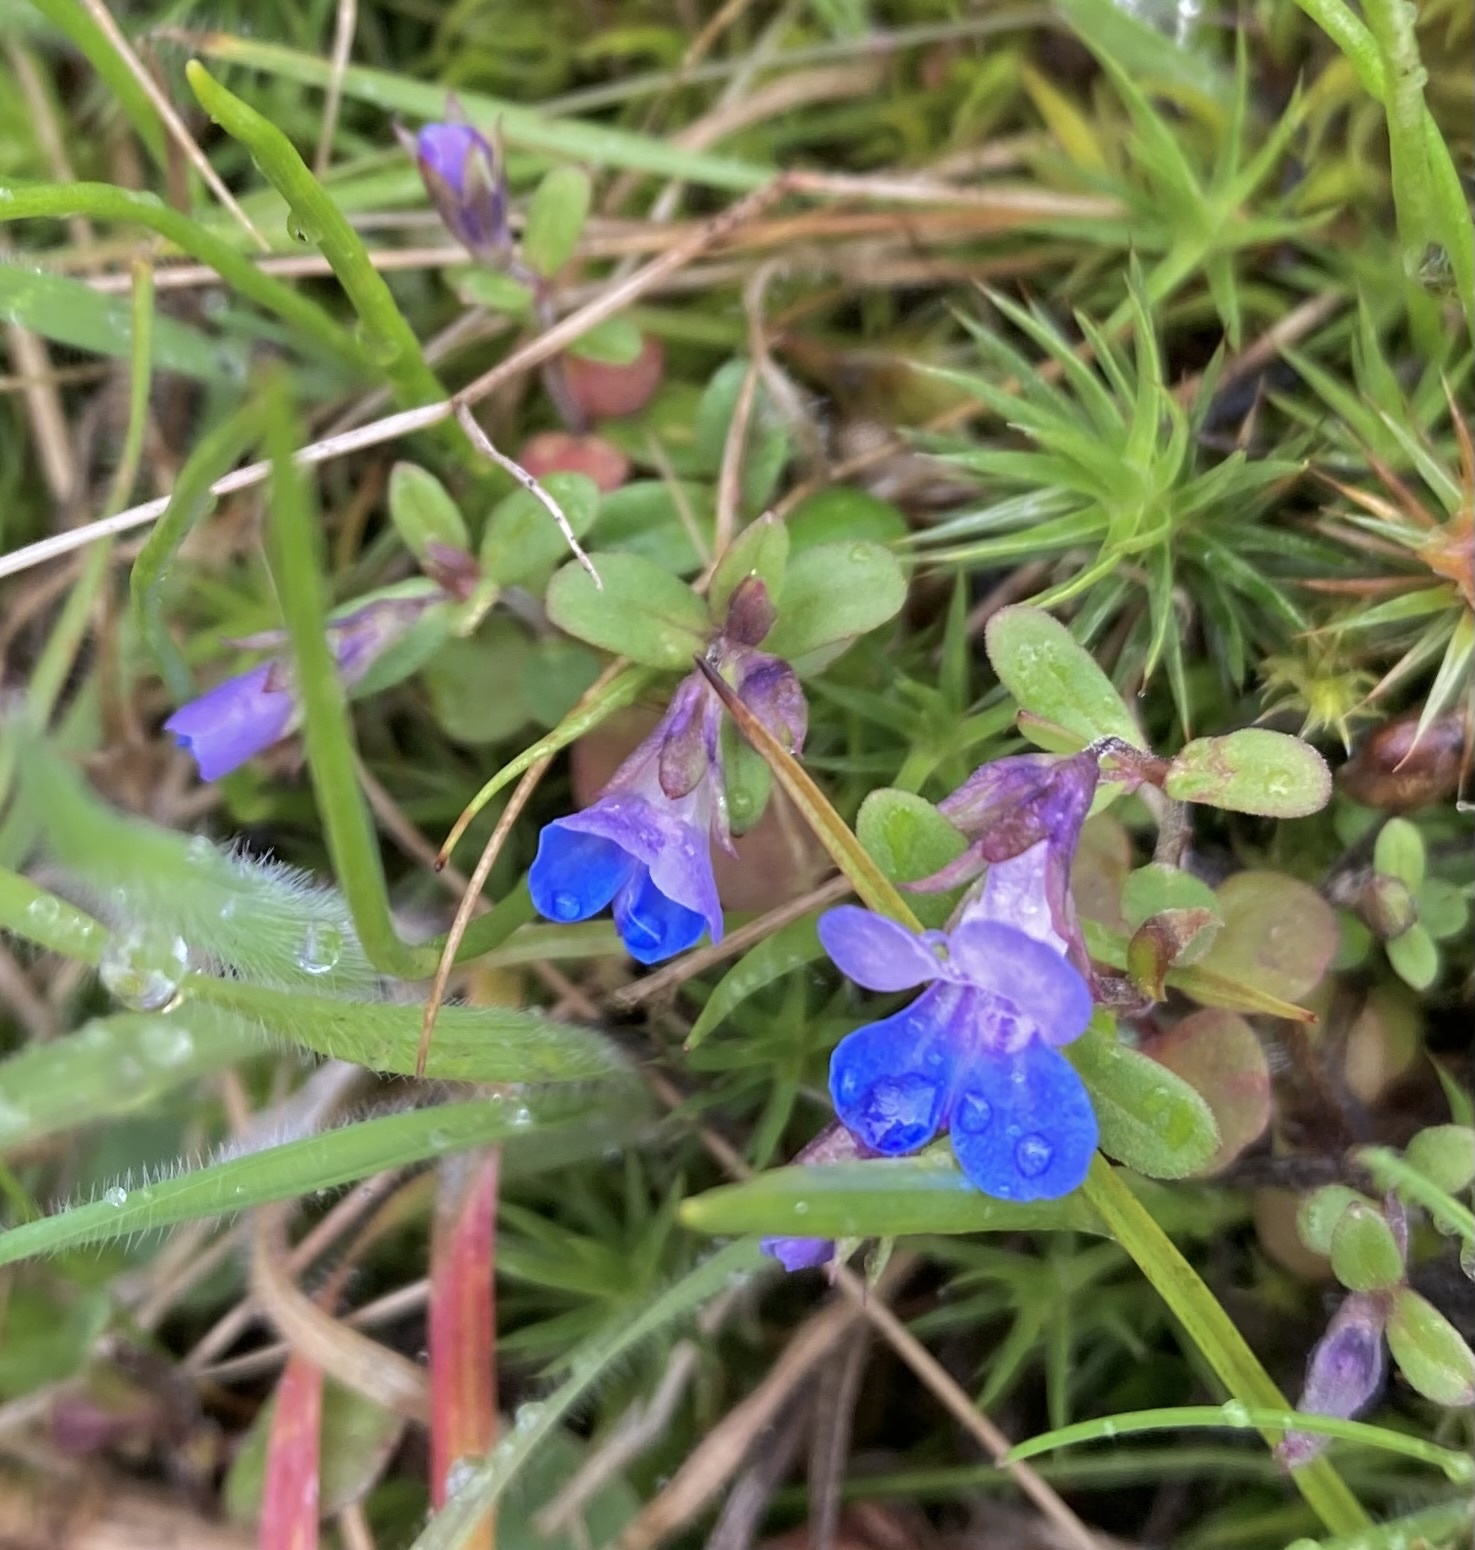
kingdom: Plantae
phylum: Tracheophyta
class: Magnoliopsida
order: Lamiales
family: Plantaginaceae
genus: Collinsia
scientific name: Collinsia parviflora
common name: Blue-lips
